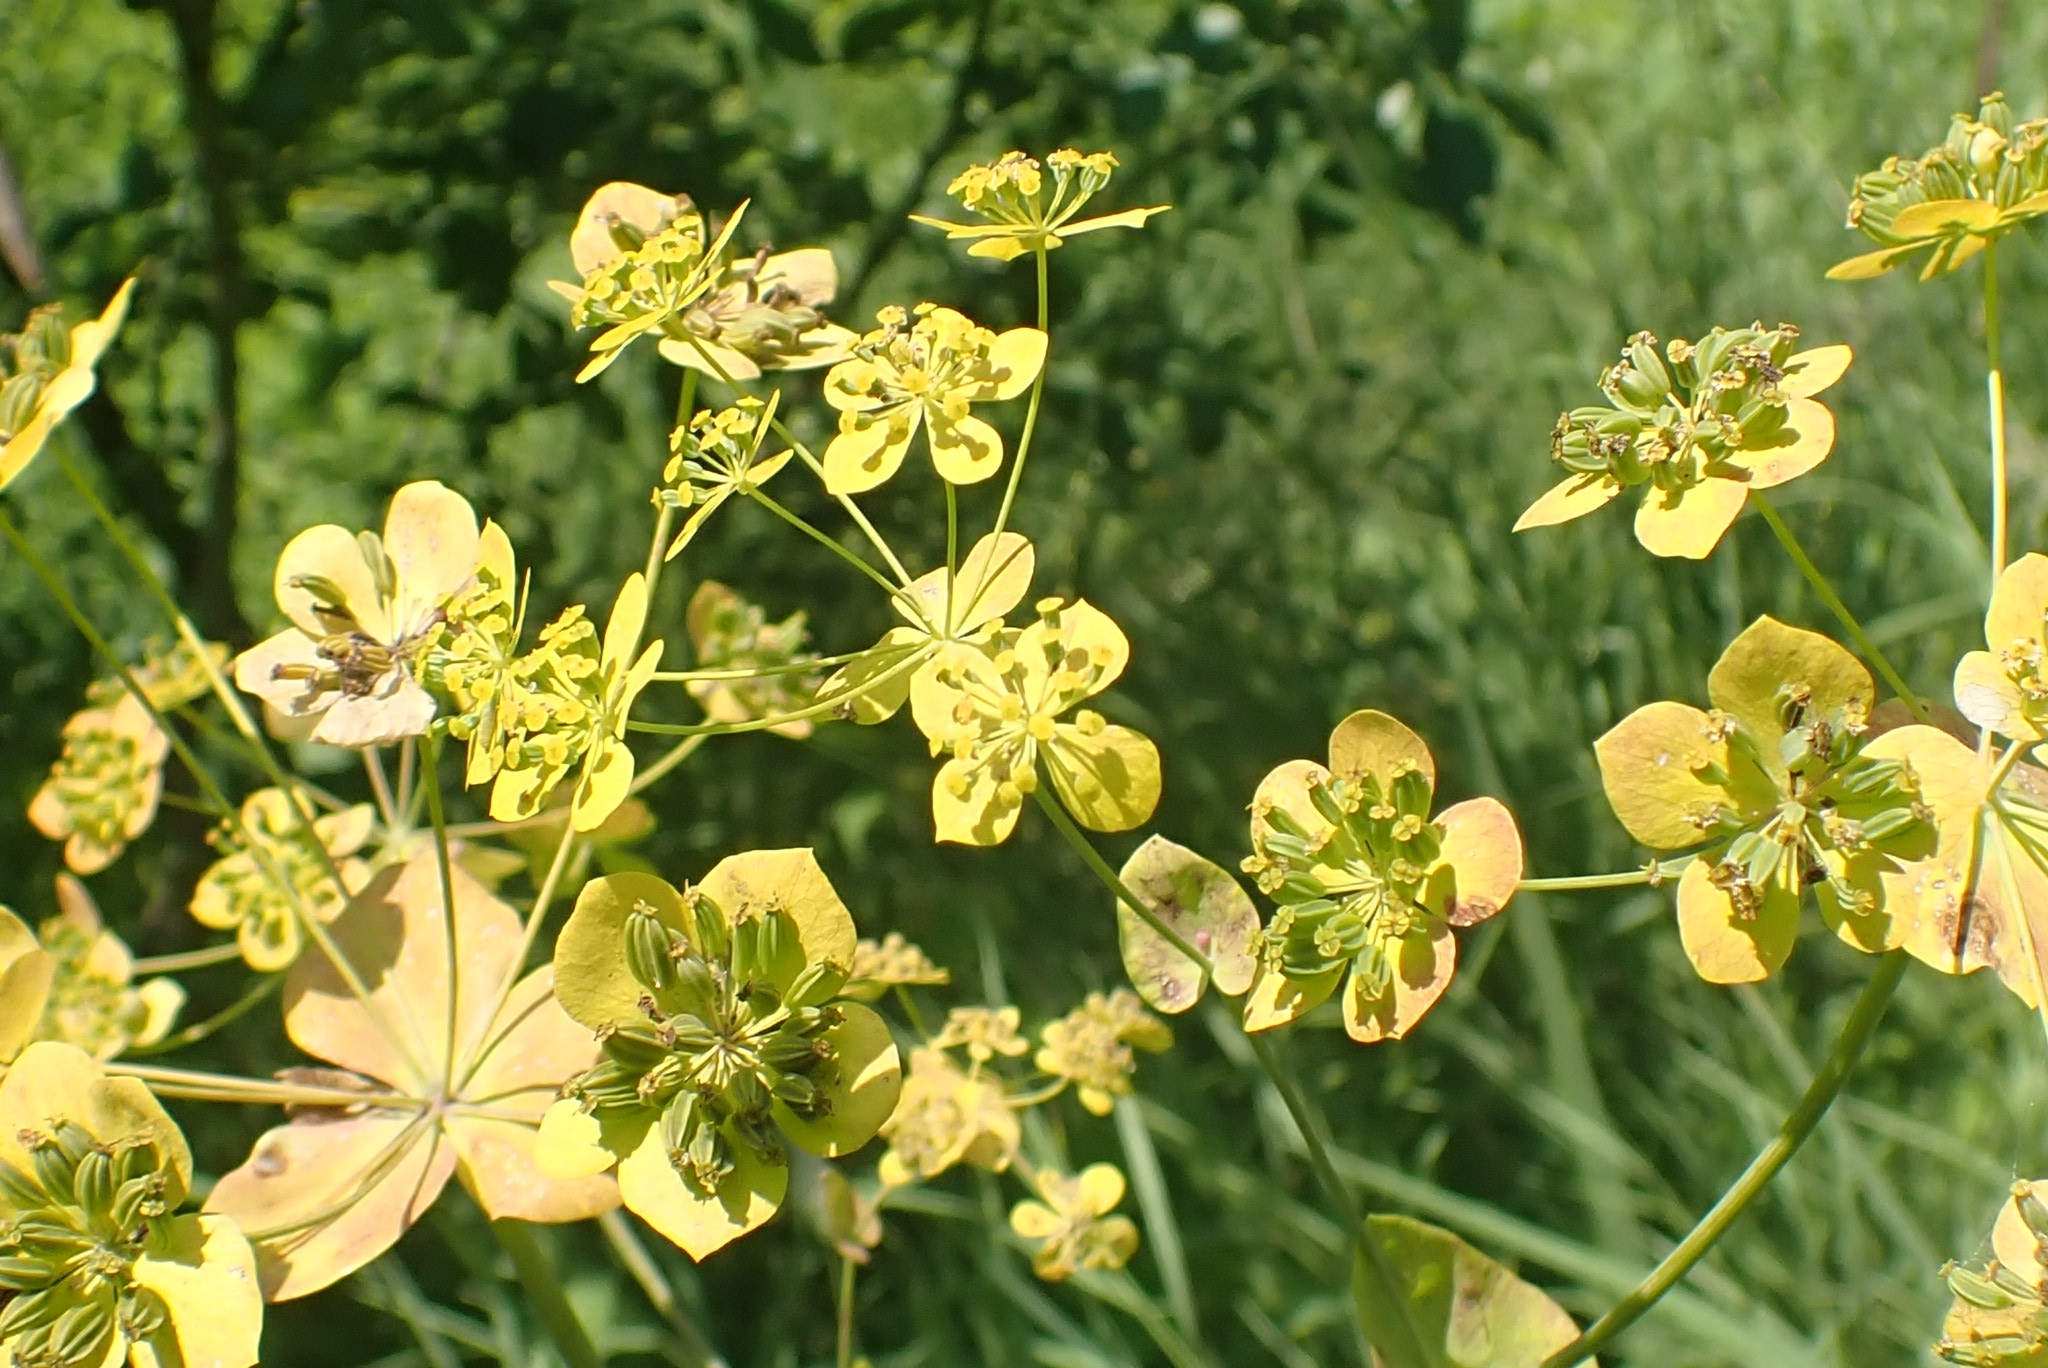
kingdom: Plantae
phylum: Tracheophyta
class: Magnoliopsida
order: Apiales
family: Apiaceae
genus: Bupleurum
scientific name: Bupleurum aureum
